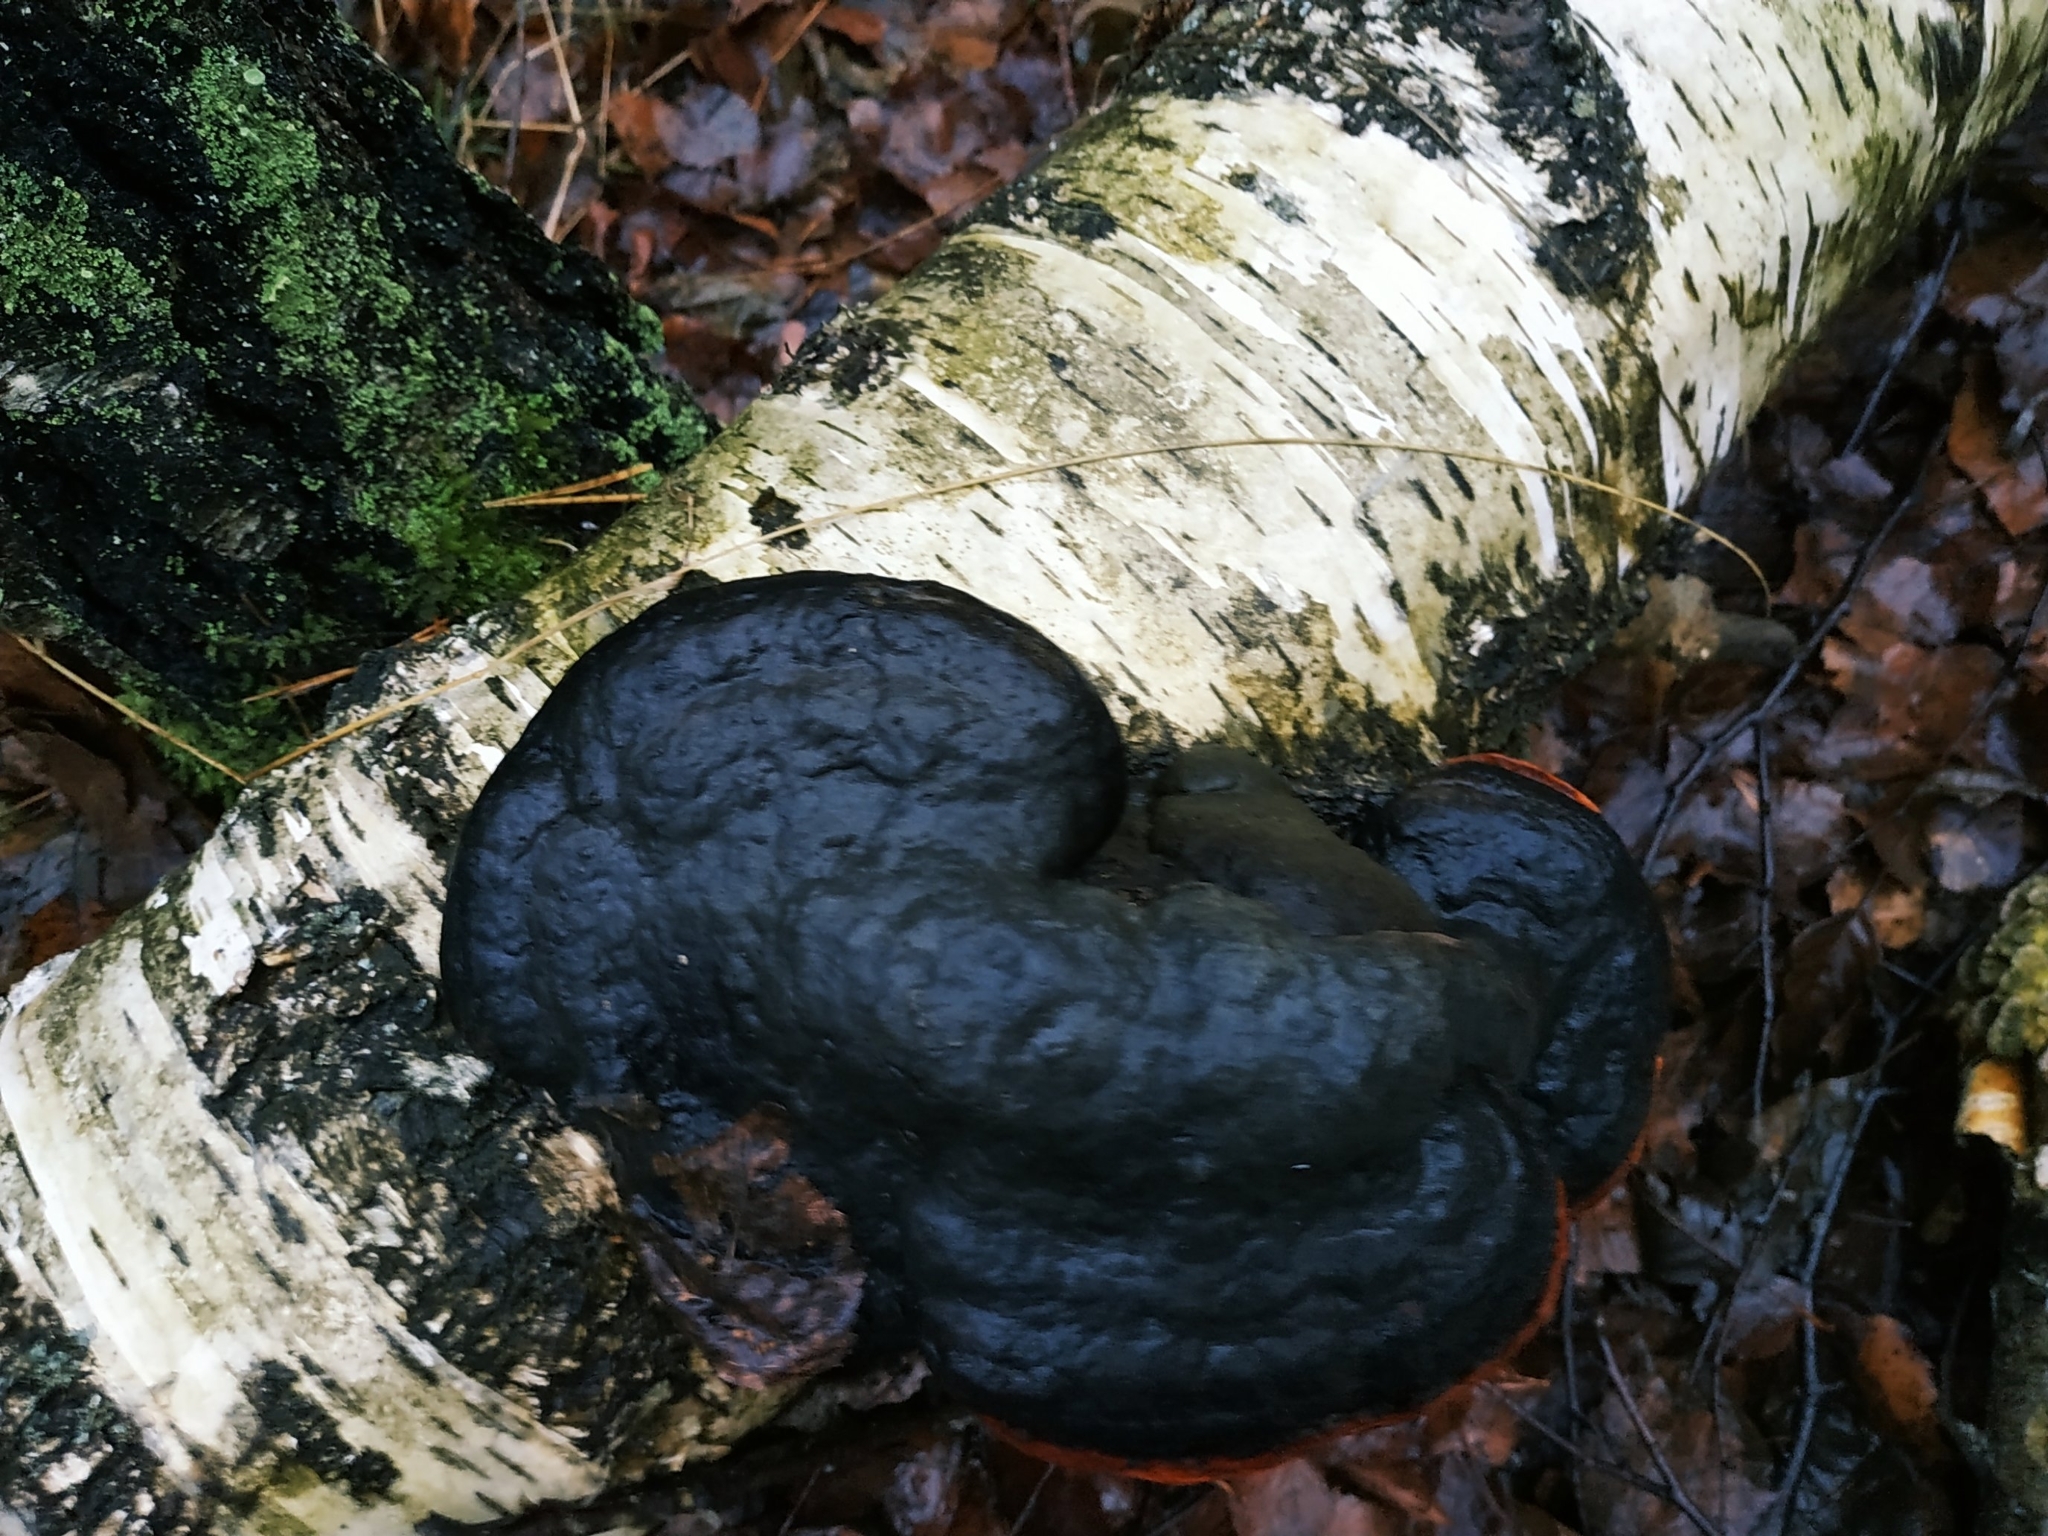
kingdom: Fungi
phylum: Basidiomycota
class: Agaricomycetes
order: Polyporales
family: Fomitopsidaceae
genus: Fomitopsis
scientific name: Fomitopsis pinicola
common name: Red-belted bracket
